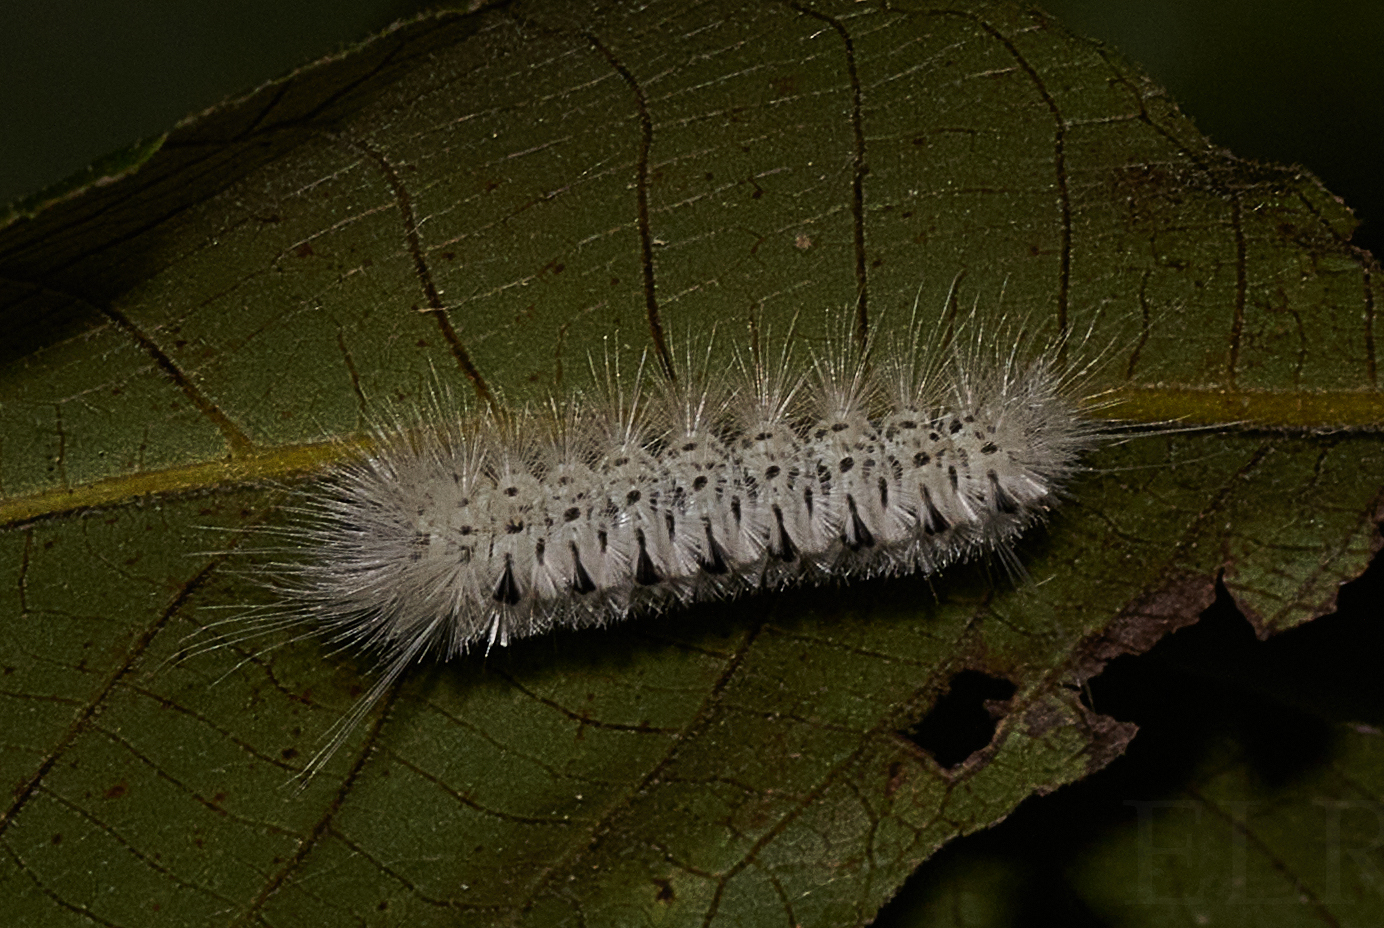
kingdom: Animalia
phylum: Arthropoda
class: Insecta
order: Lepidoptera
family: Erebidae
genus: Lophocampa
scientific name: Lophocampa caryae
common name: Hickory tussock moth
